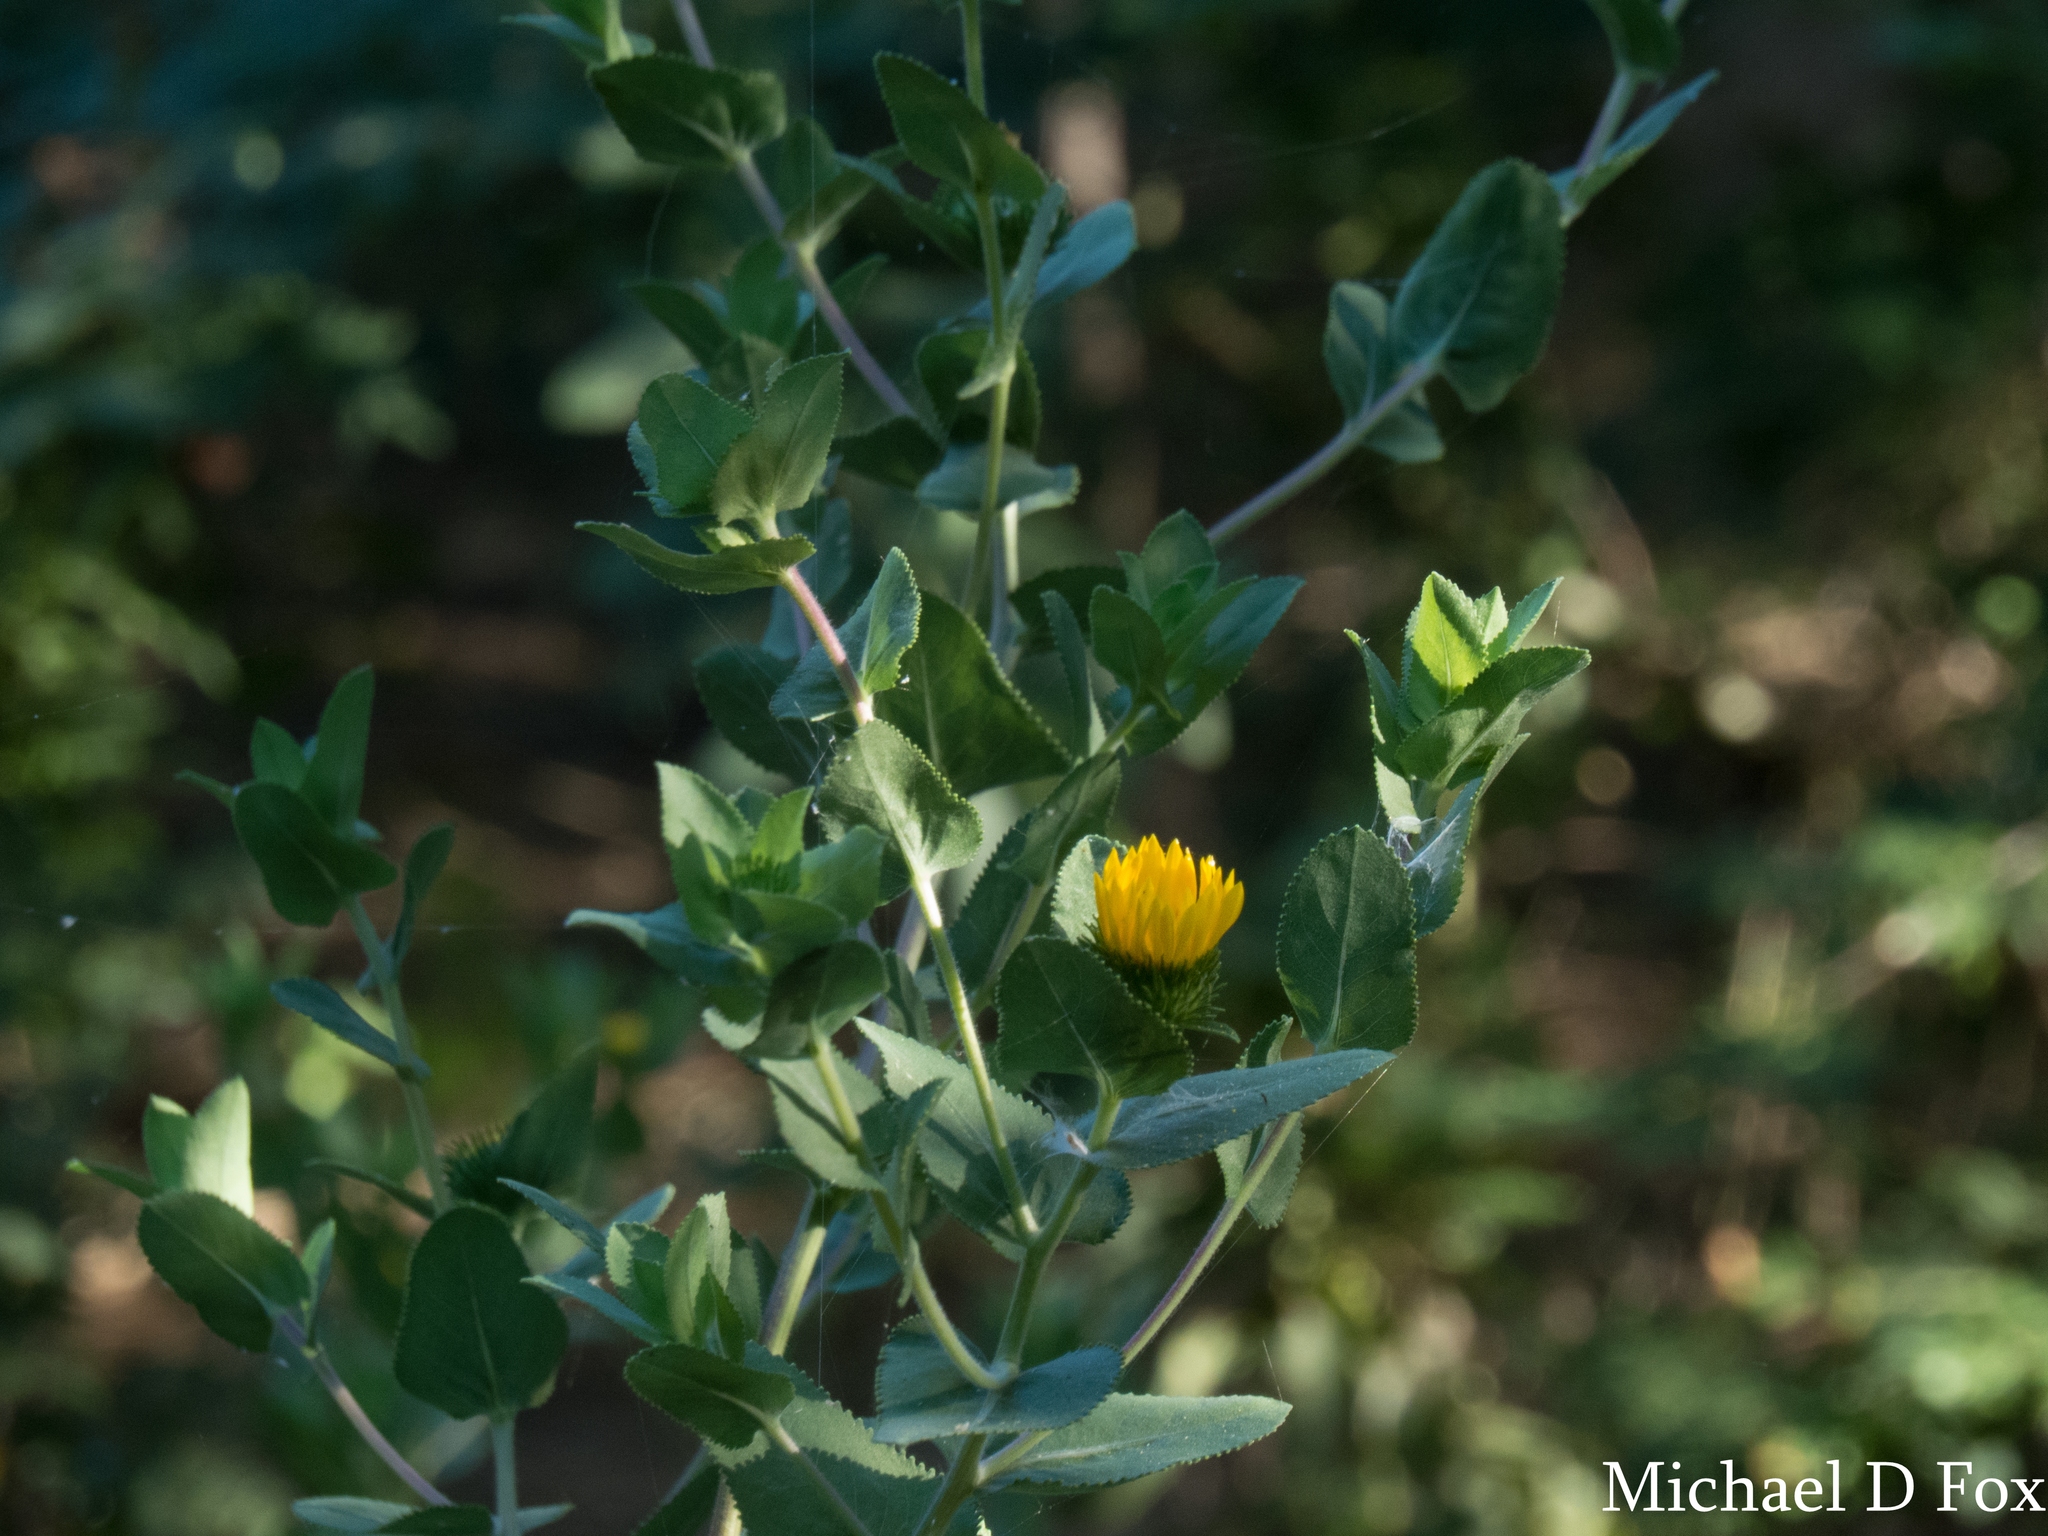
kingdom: Plantae
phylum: Tracheophyta
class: Magnoliopsida
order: Asterales
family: Asteraceae
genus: Grindelia
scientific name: Grindelia adenodonta
